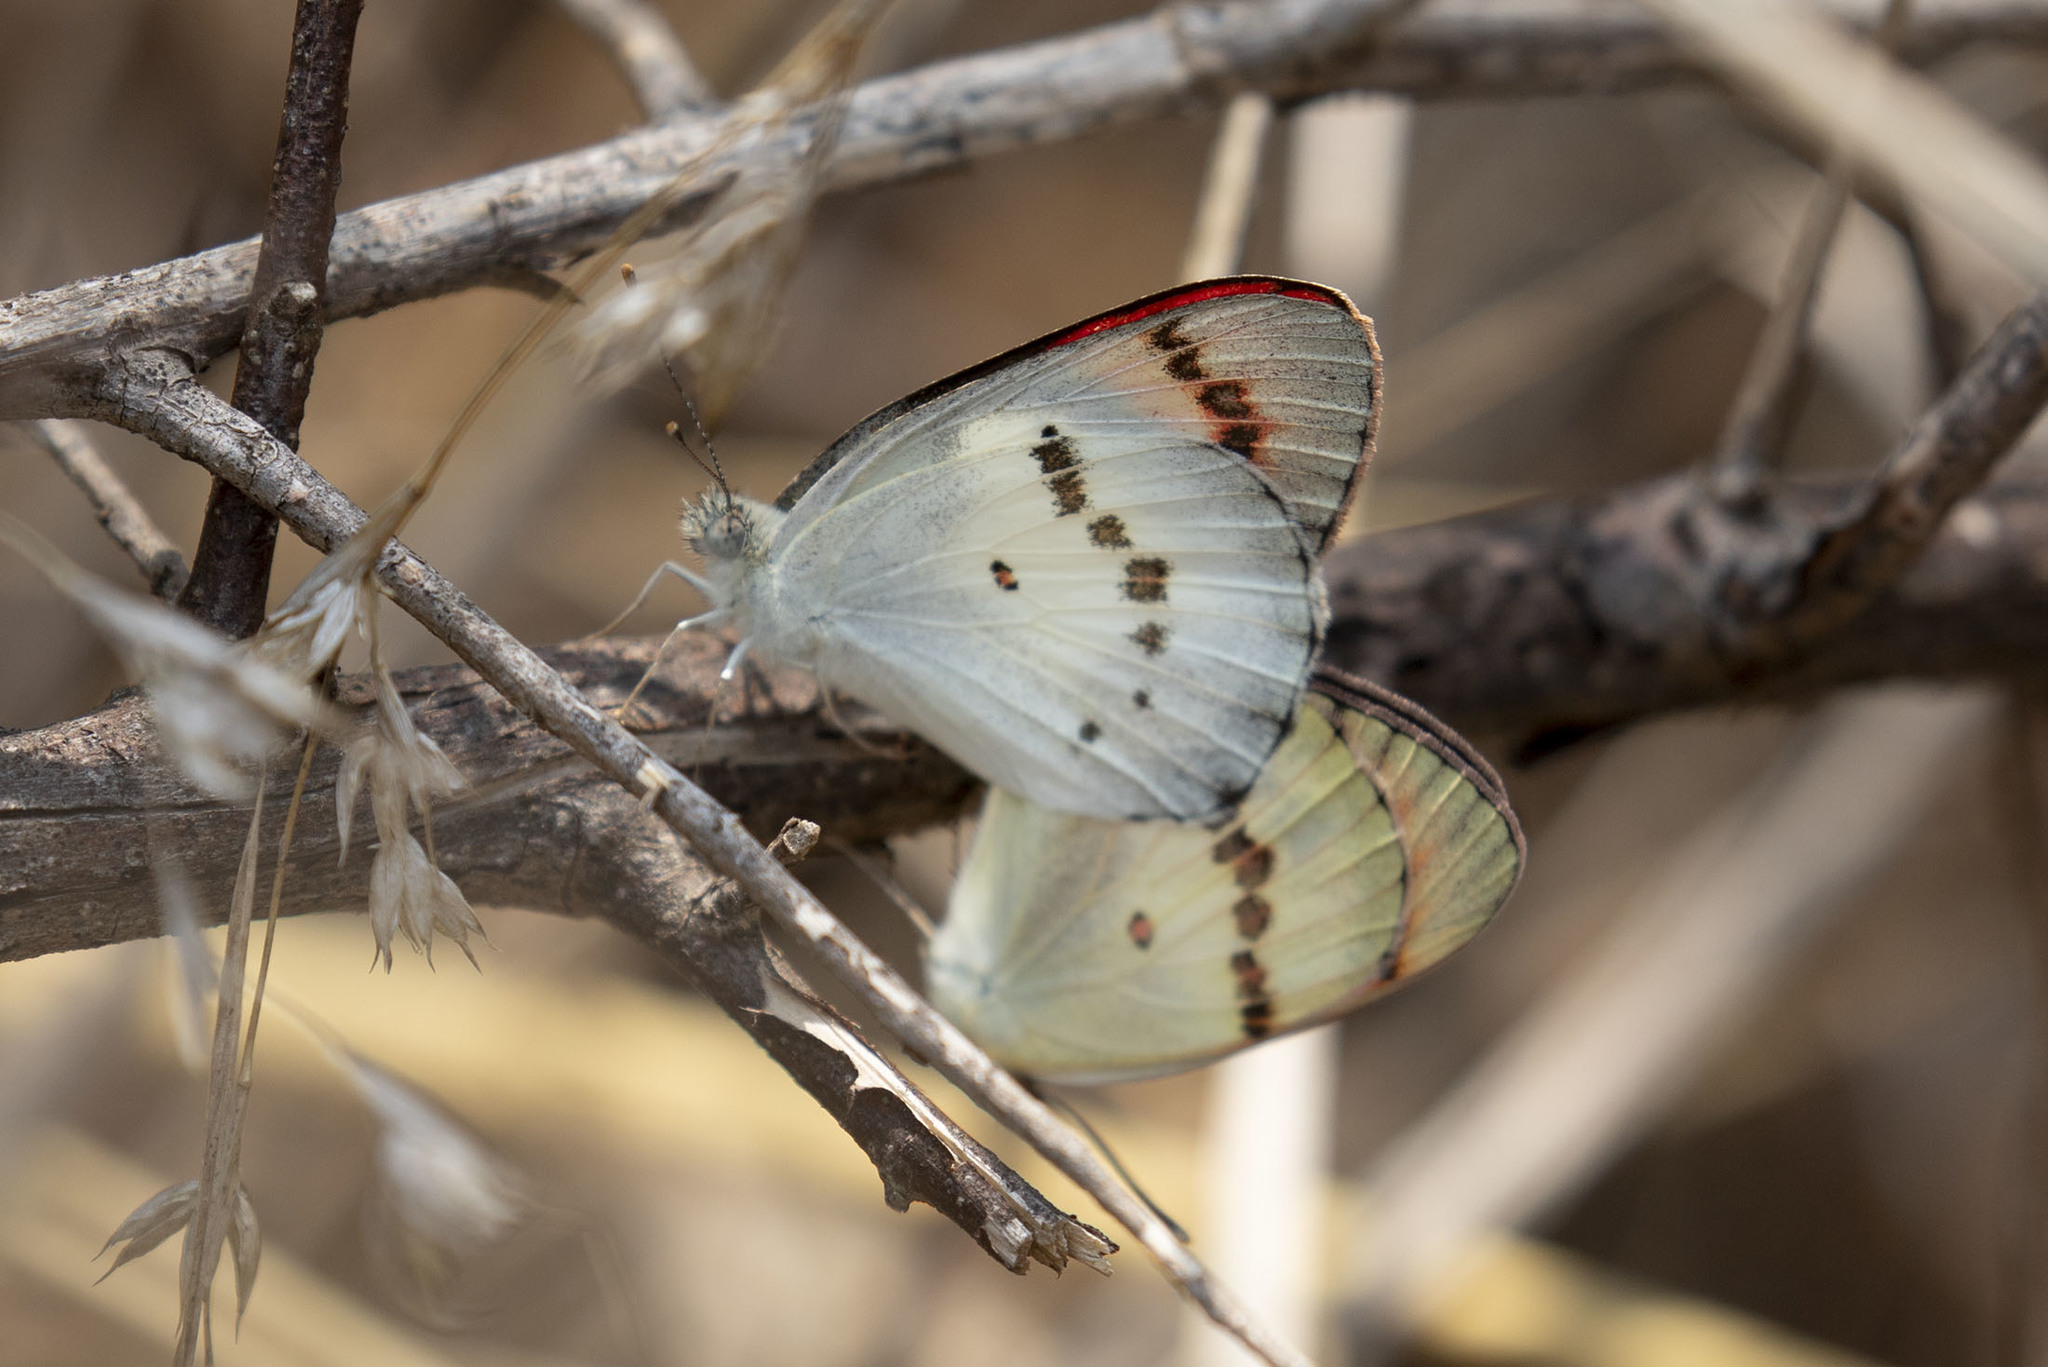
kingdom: Animalia
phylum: Arthropoda
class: Insecta
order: Lepidoptera
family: Pieridae
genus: Colotis
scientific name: Colotis danae
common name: Crimson tip
